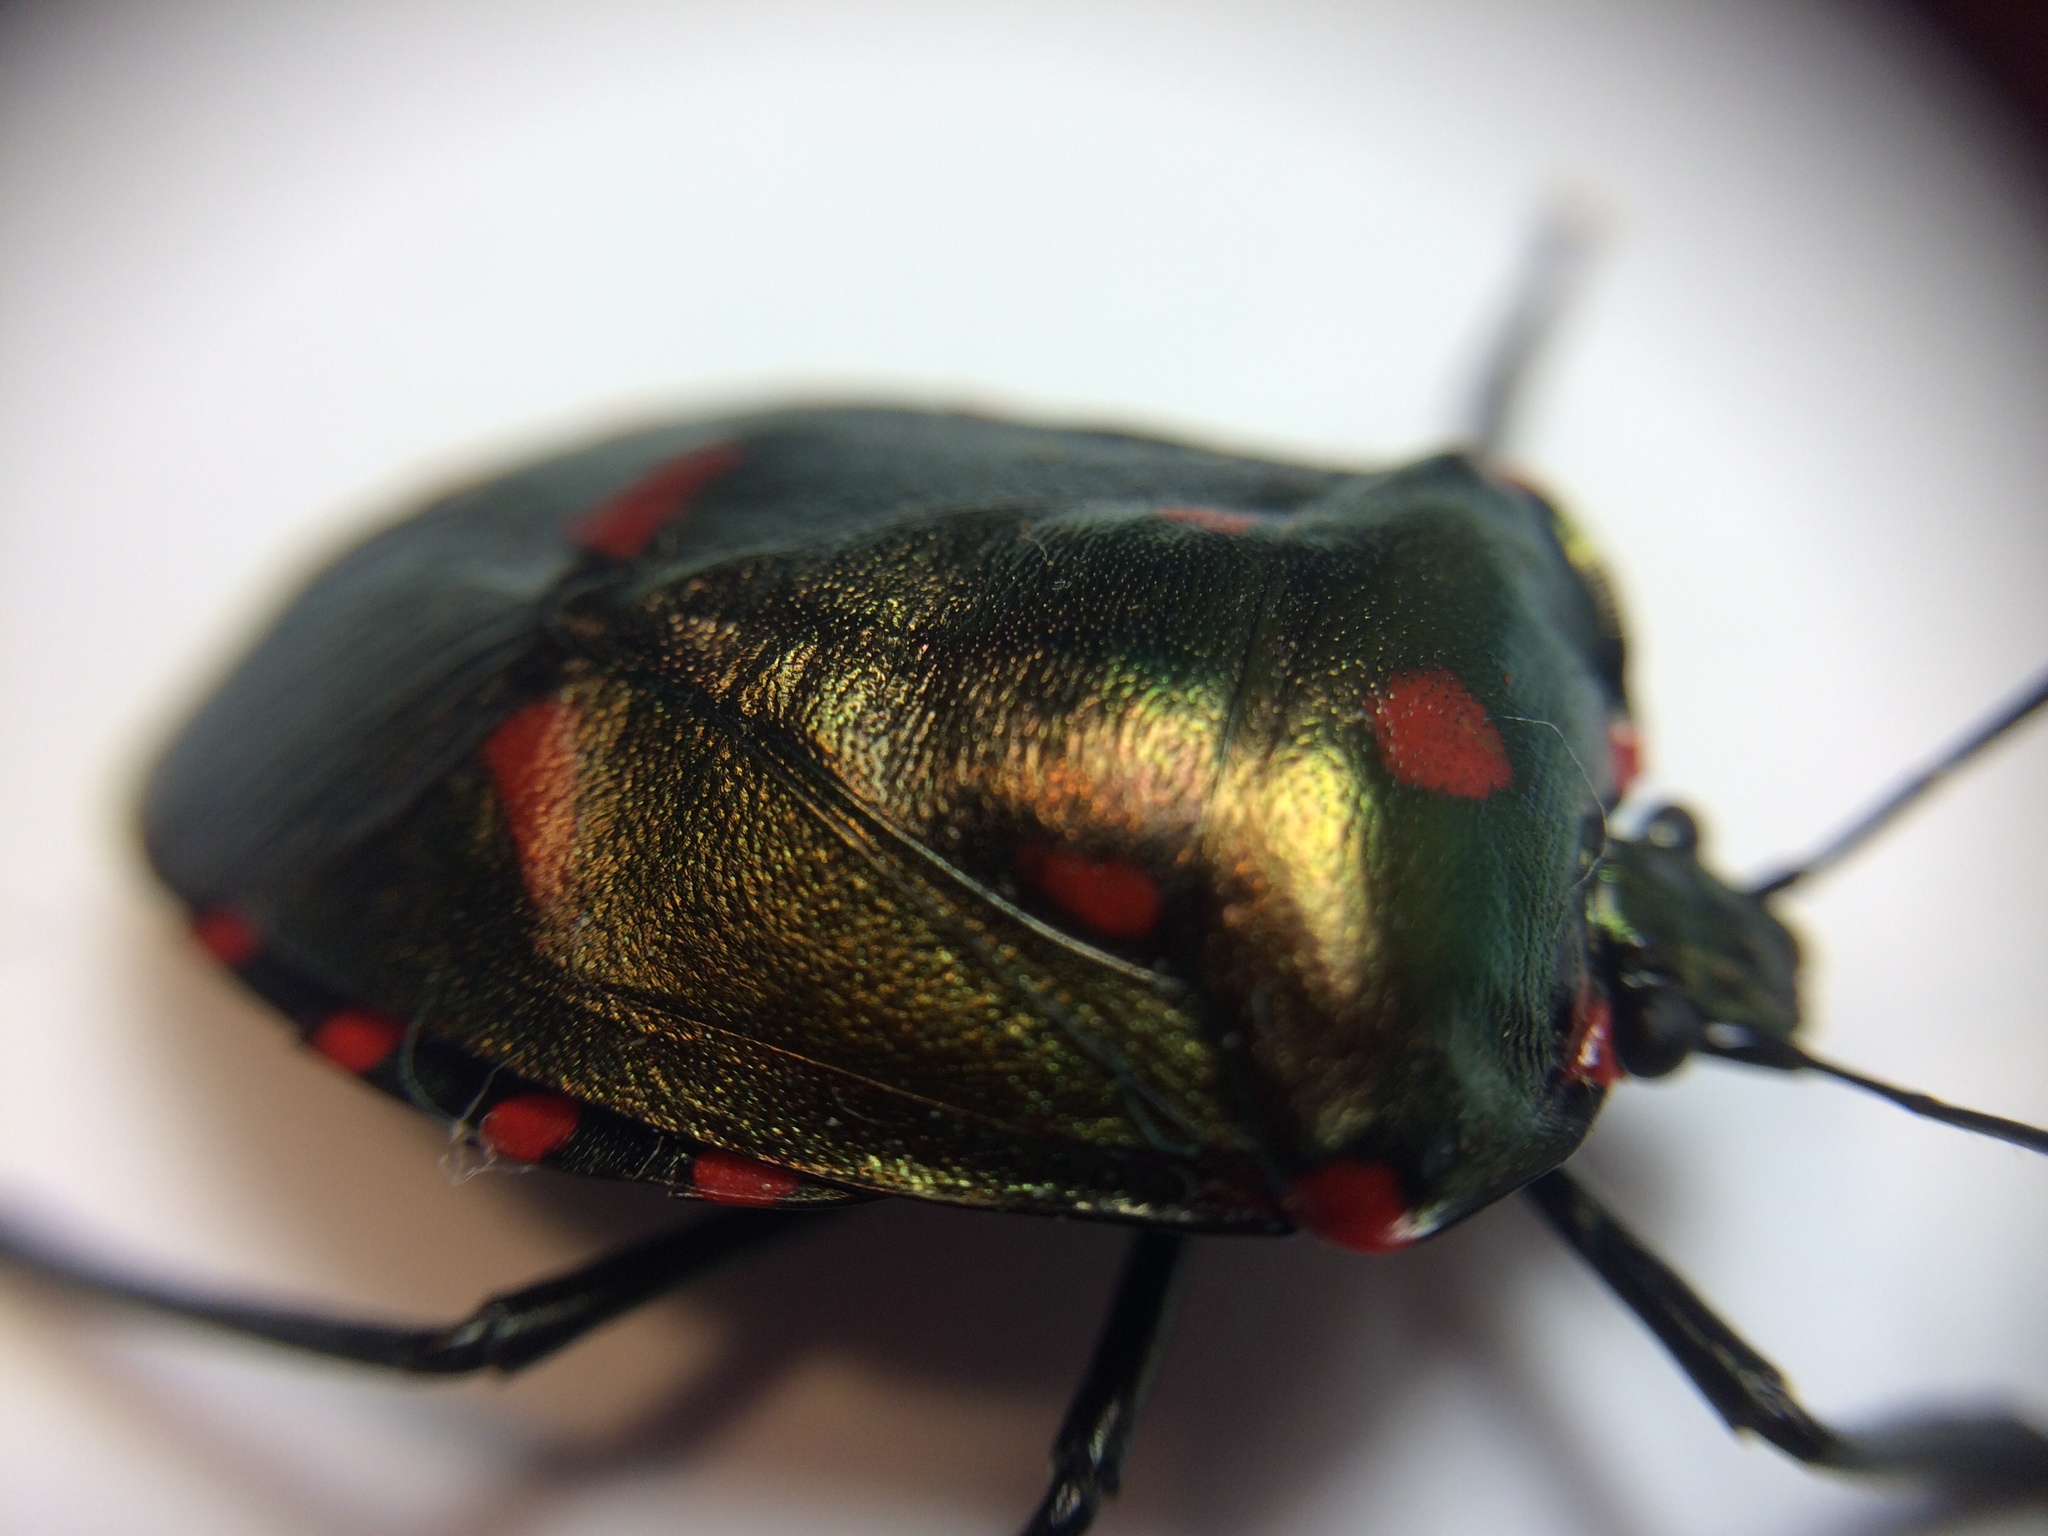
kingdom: Animalia
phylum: Arthropoda
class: Insecta
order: Hemiptera
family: Pentatomidae
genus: Rhyssocephala
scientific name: Rhyssocephala
